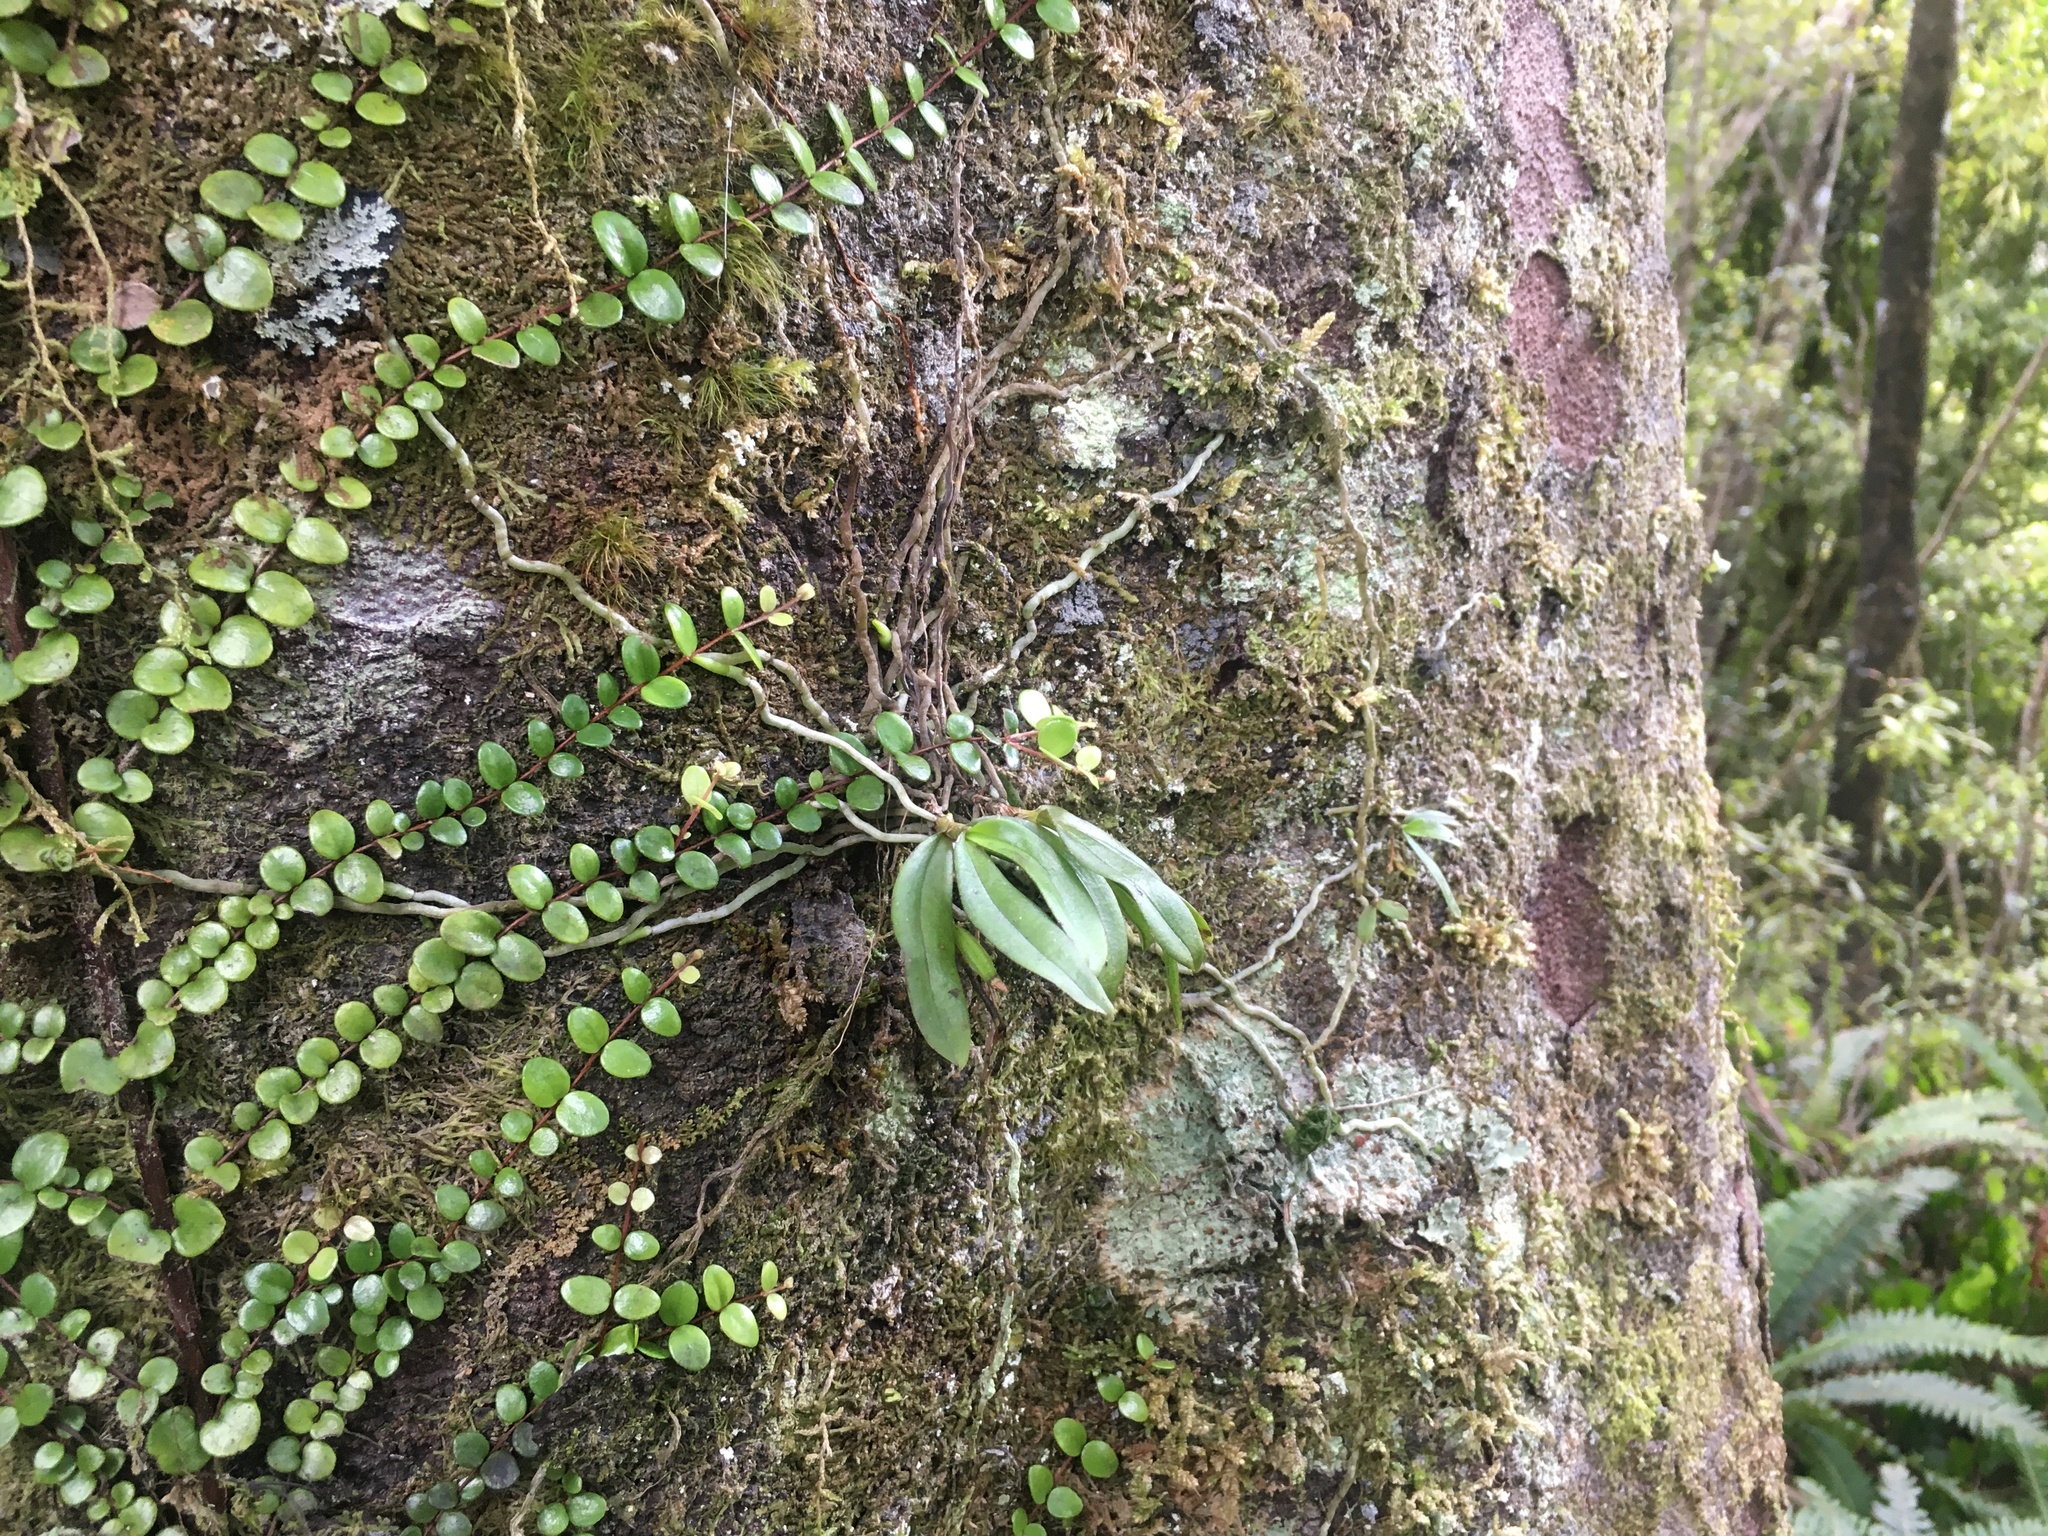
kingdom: Plantae
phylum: Tracheophyta
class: Liliopsida
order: Asparagales
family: Orchidaceae
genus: Drymoanthus
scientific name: Drymoanthus adversus
